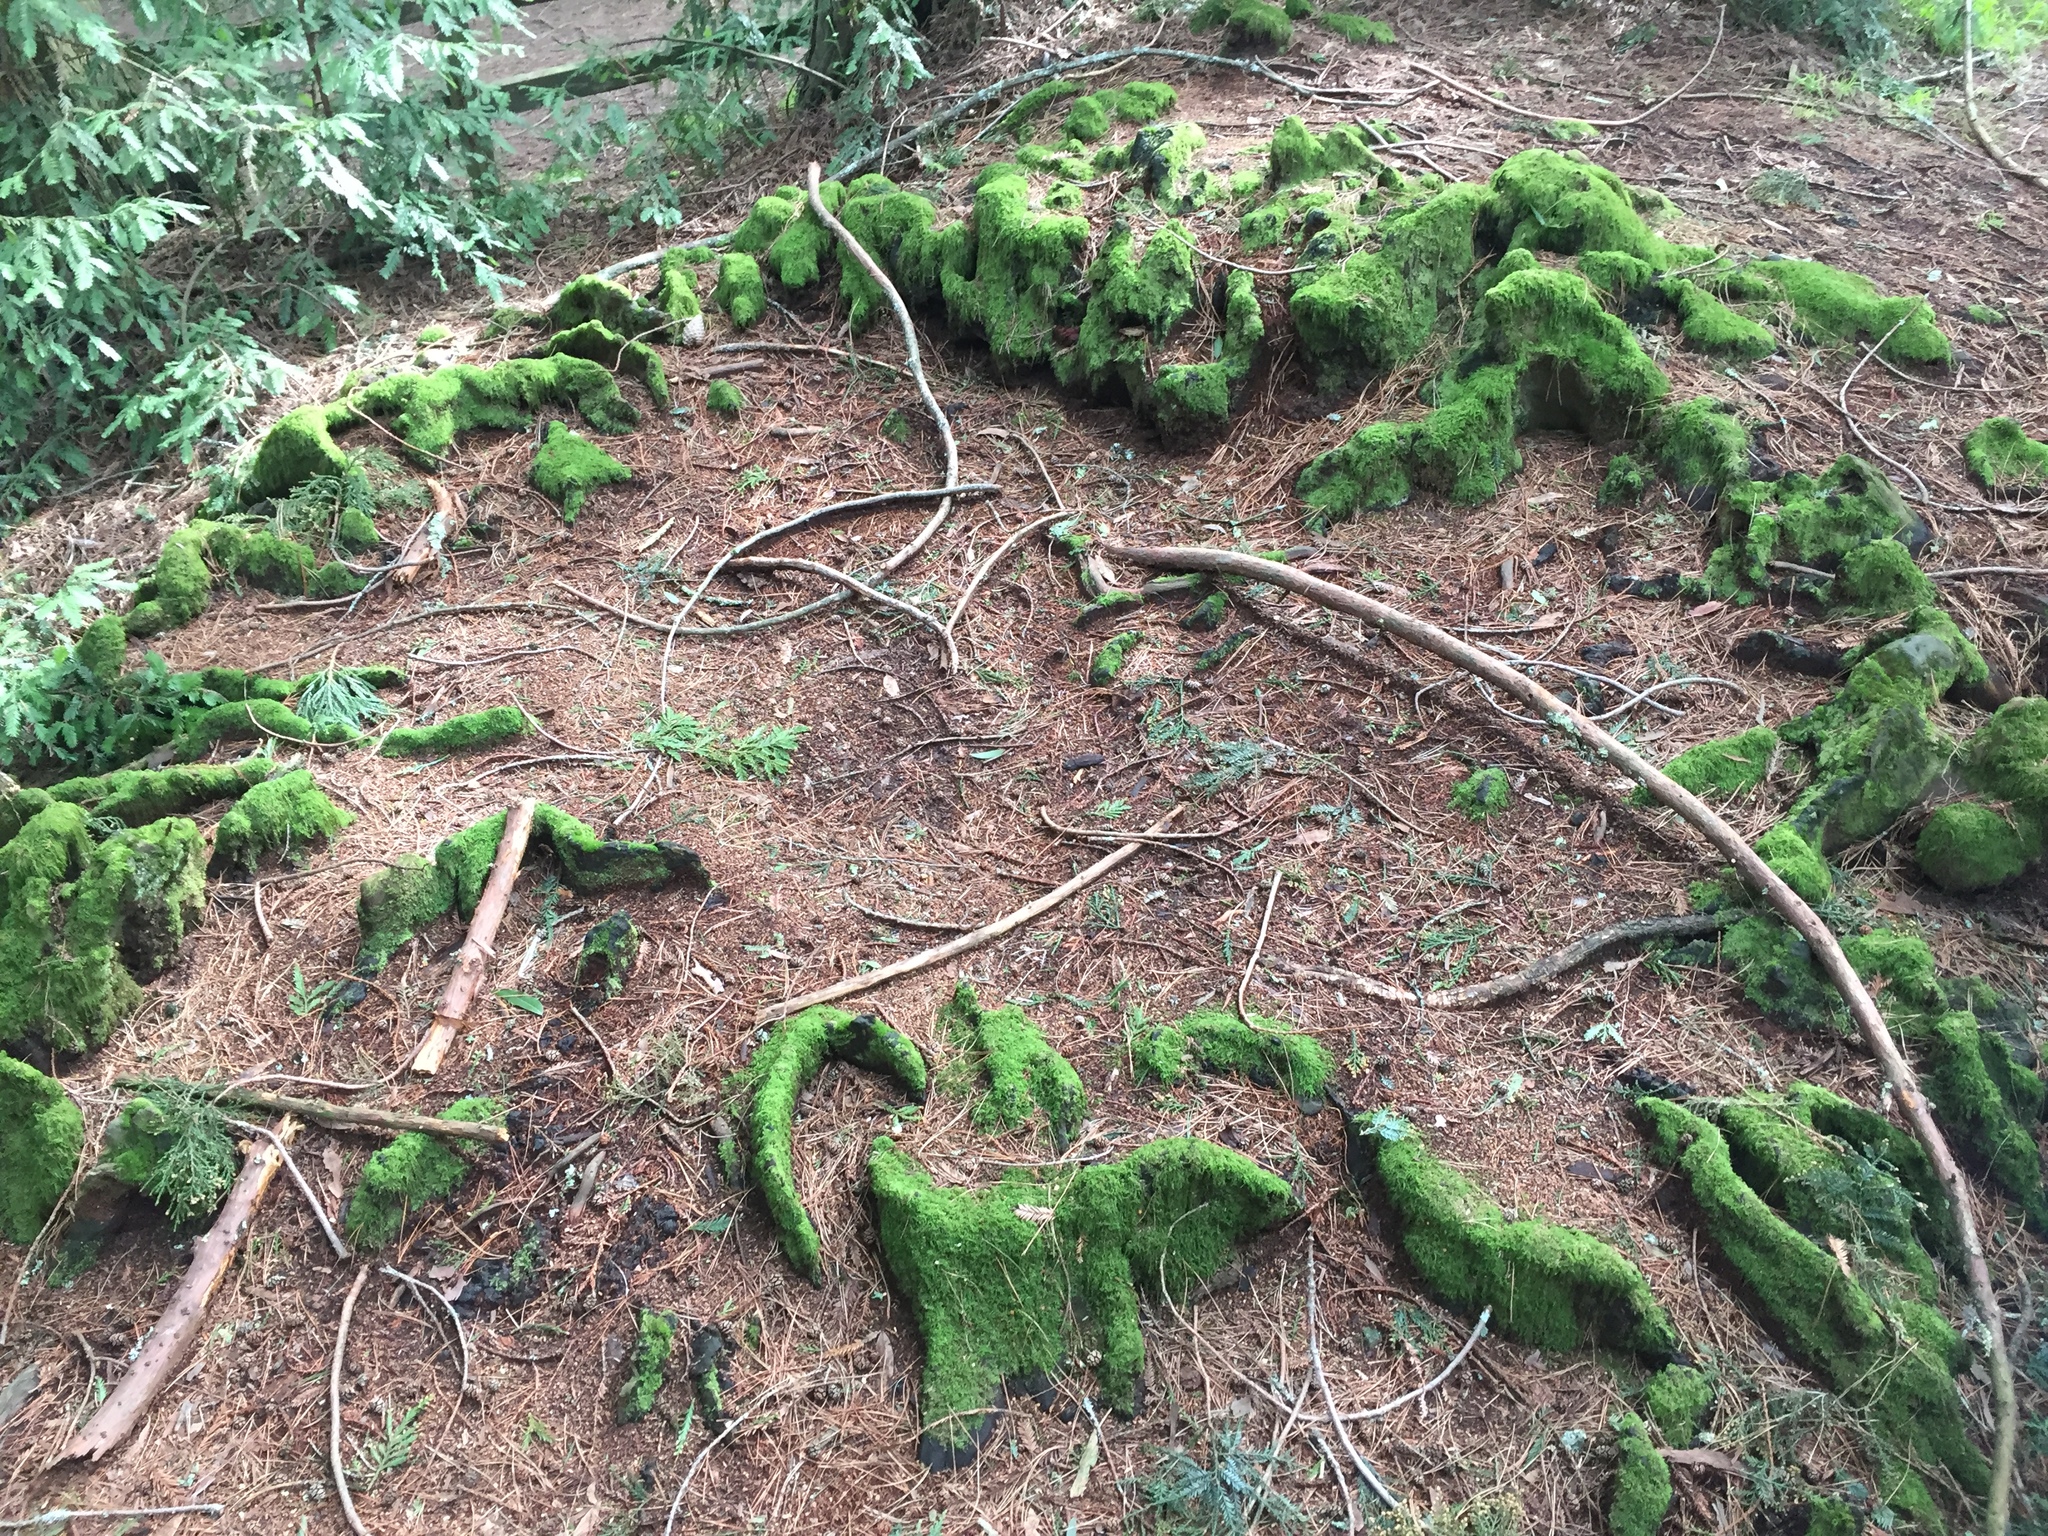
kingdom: Plantae
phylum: Tracheophyta
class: Pinopsida
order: Pinales
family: Cupressaceae
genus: Sequoia
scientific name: Sequoia sempervirens
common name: Coast redwood
